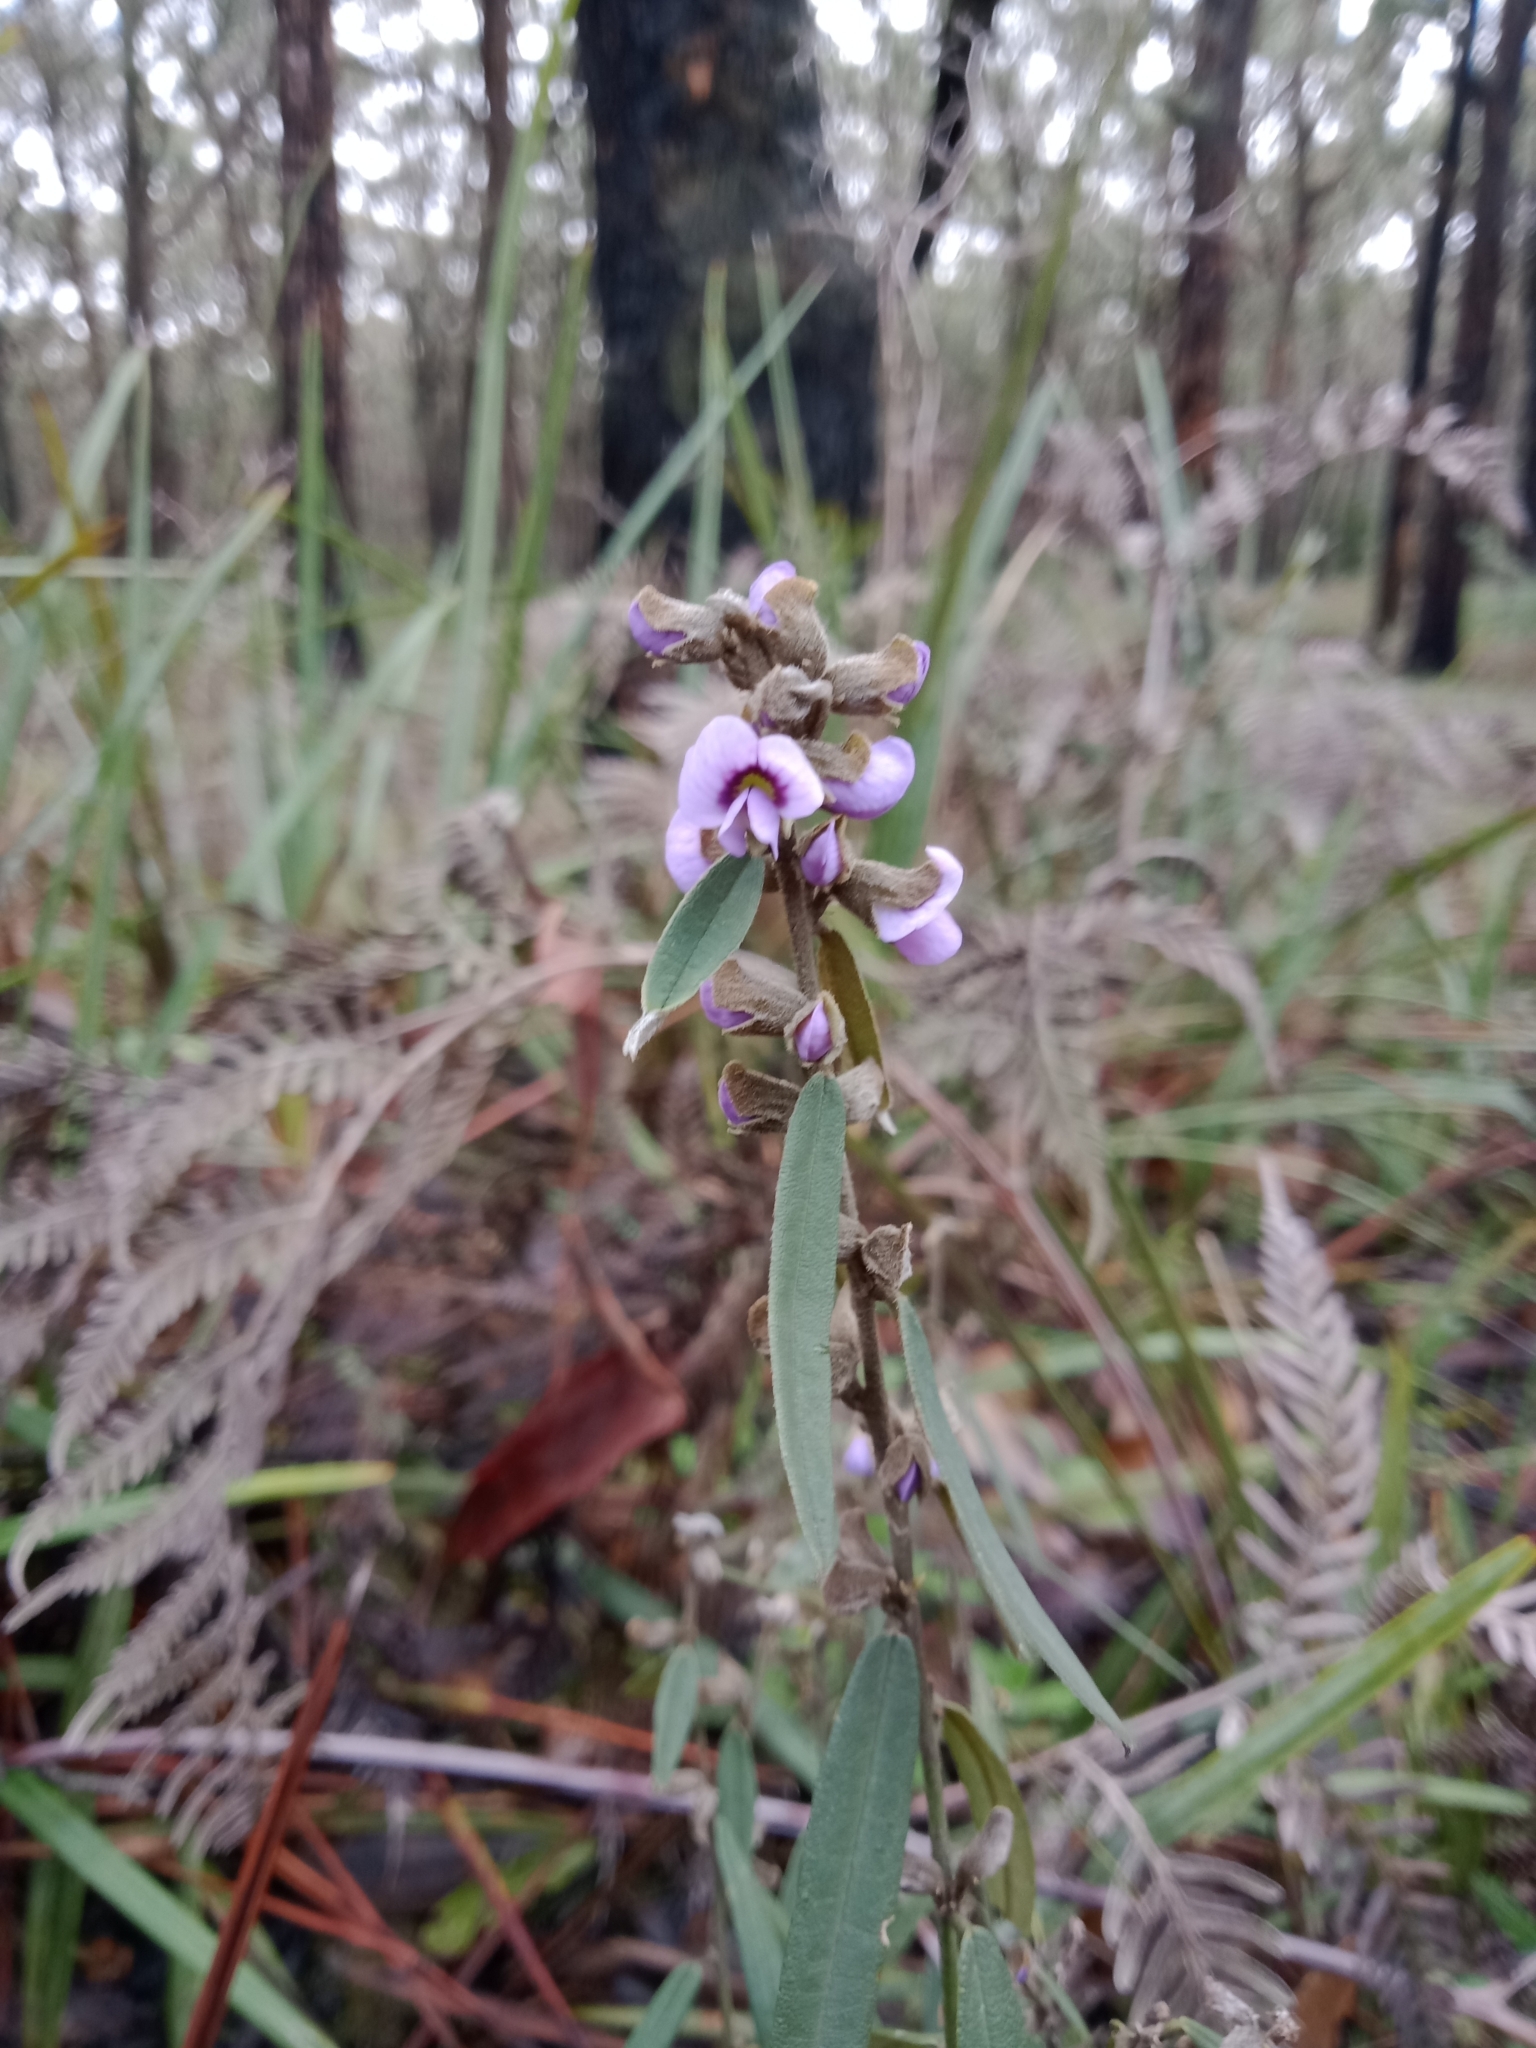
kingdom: Plantae
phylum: Tracheophyta
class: Magnoliopsida
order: Fabales
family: Fabaceae
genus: Hovea
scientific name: Hovea heterophylla
